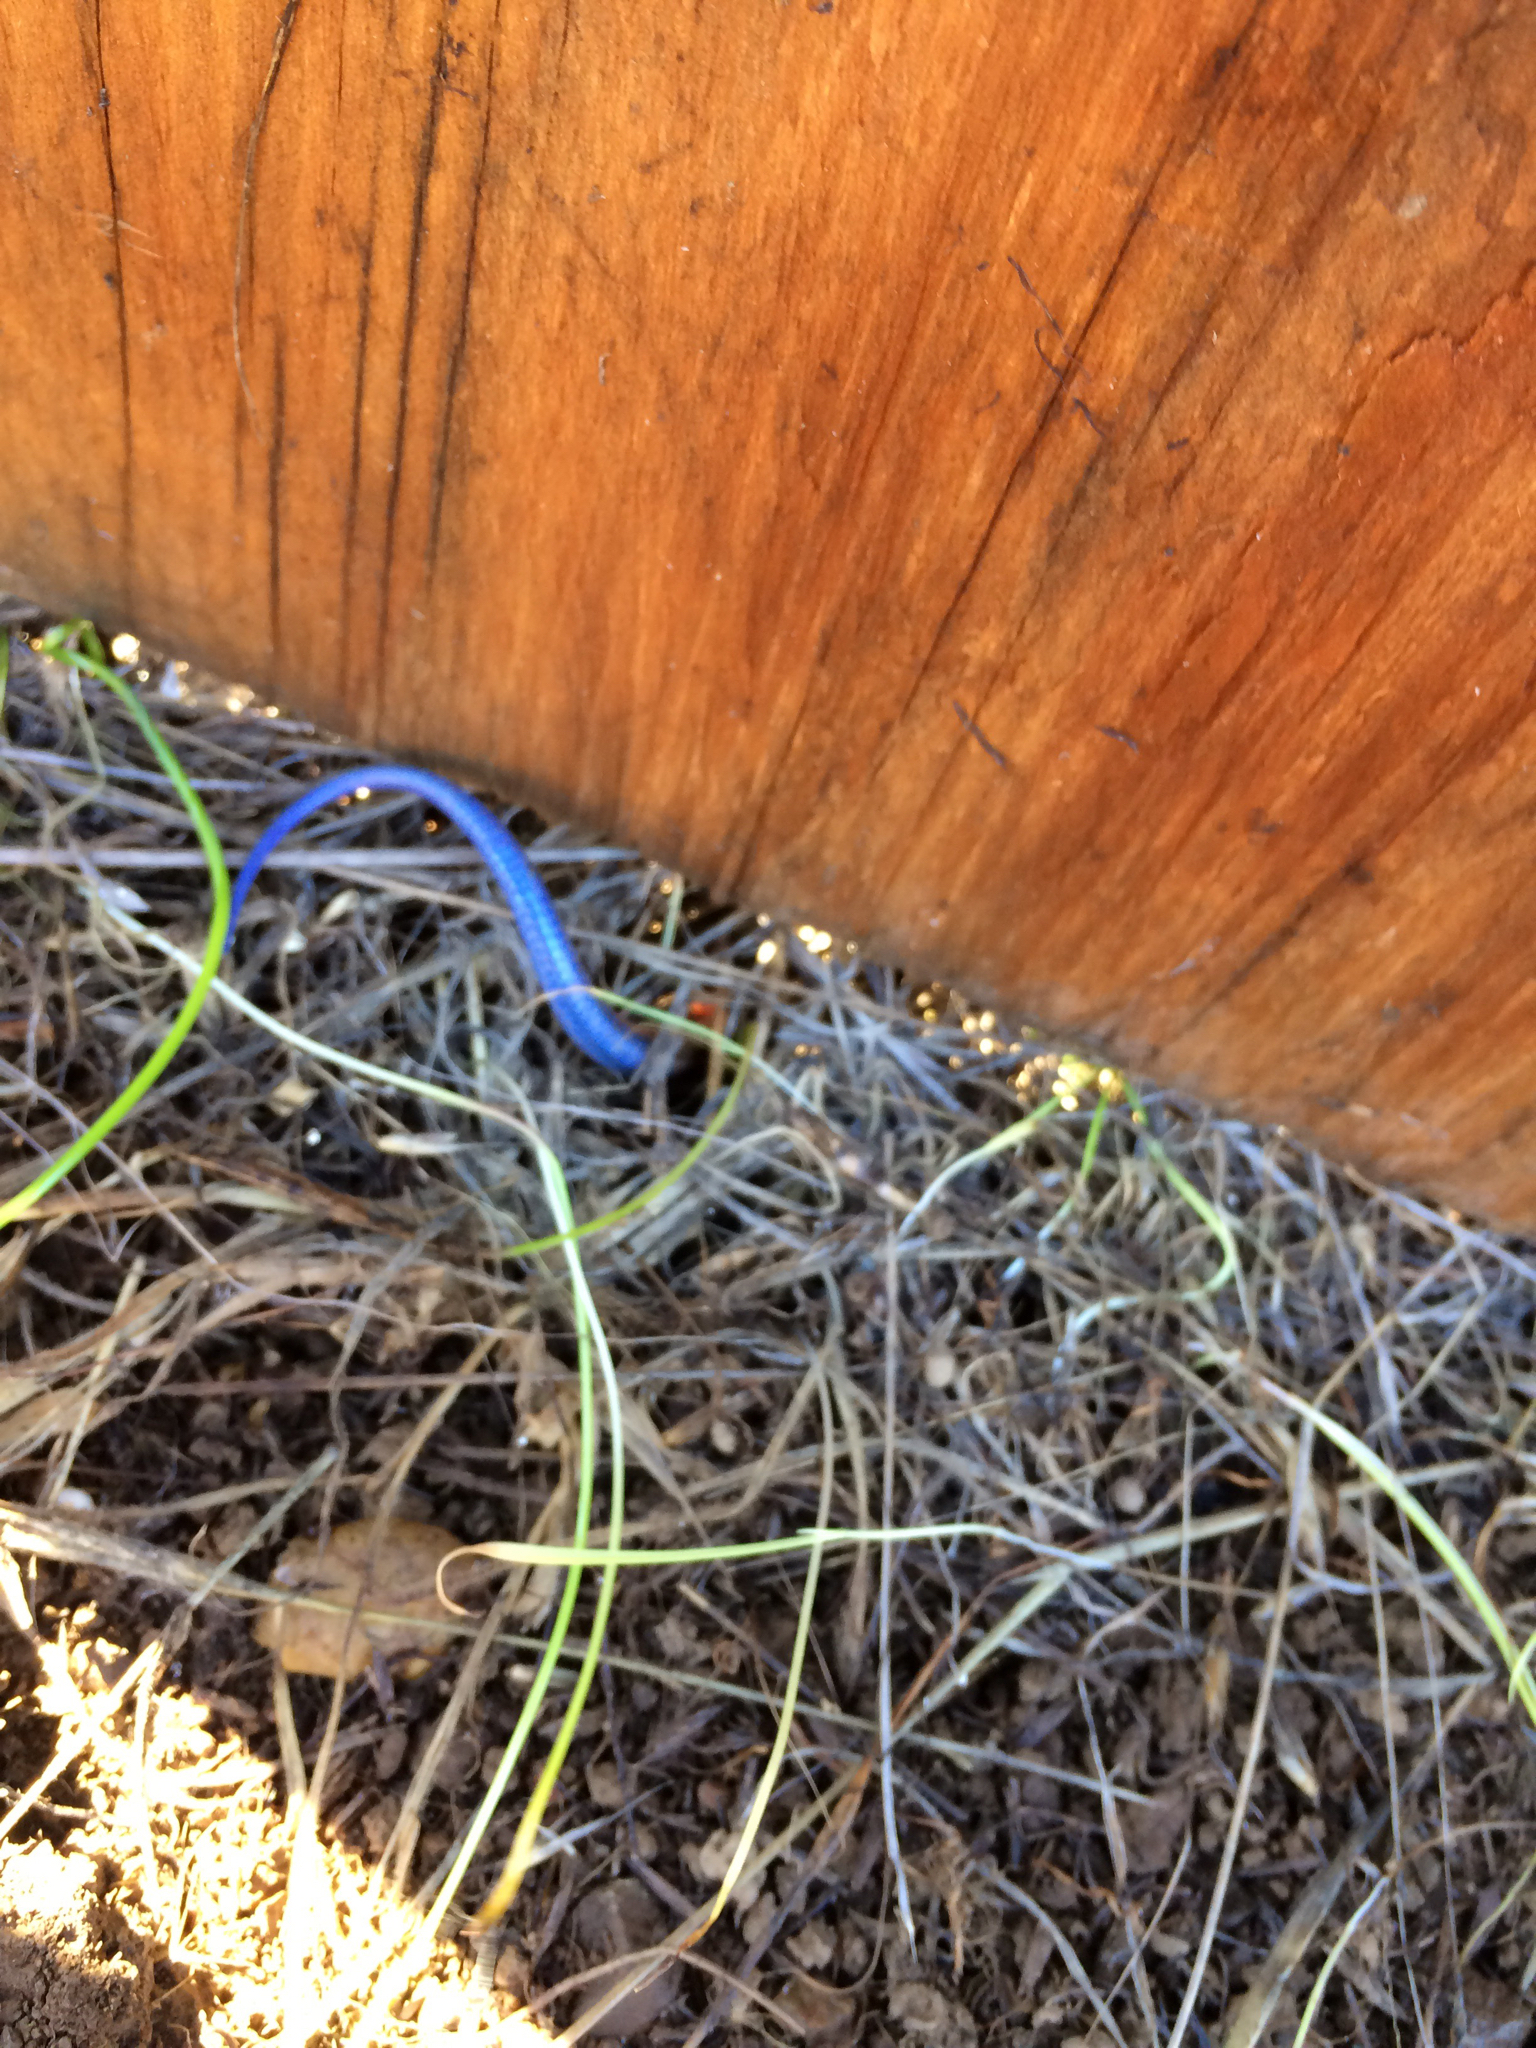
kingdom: Animalia
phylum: Chordata
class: Squamata
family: Scincidae
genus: Plestiodon
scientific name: Plestiodon skiltonianus
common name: Coronado island skink [interparietalis]
